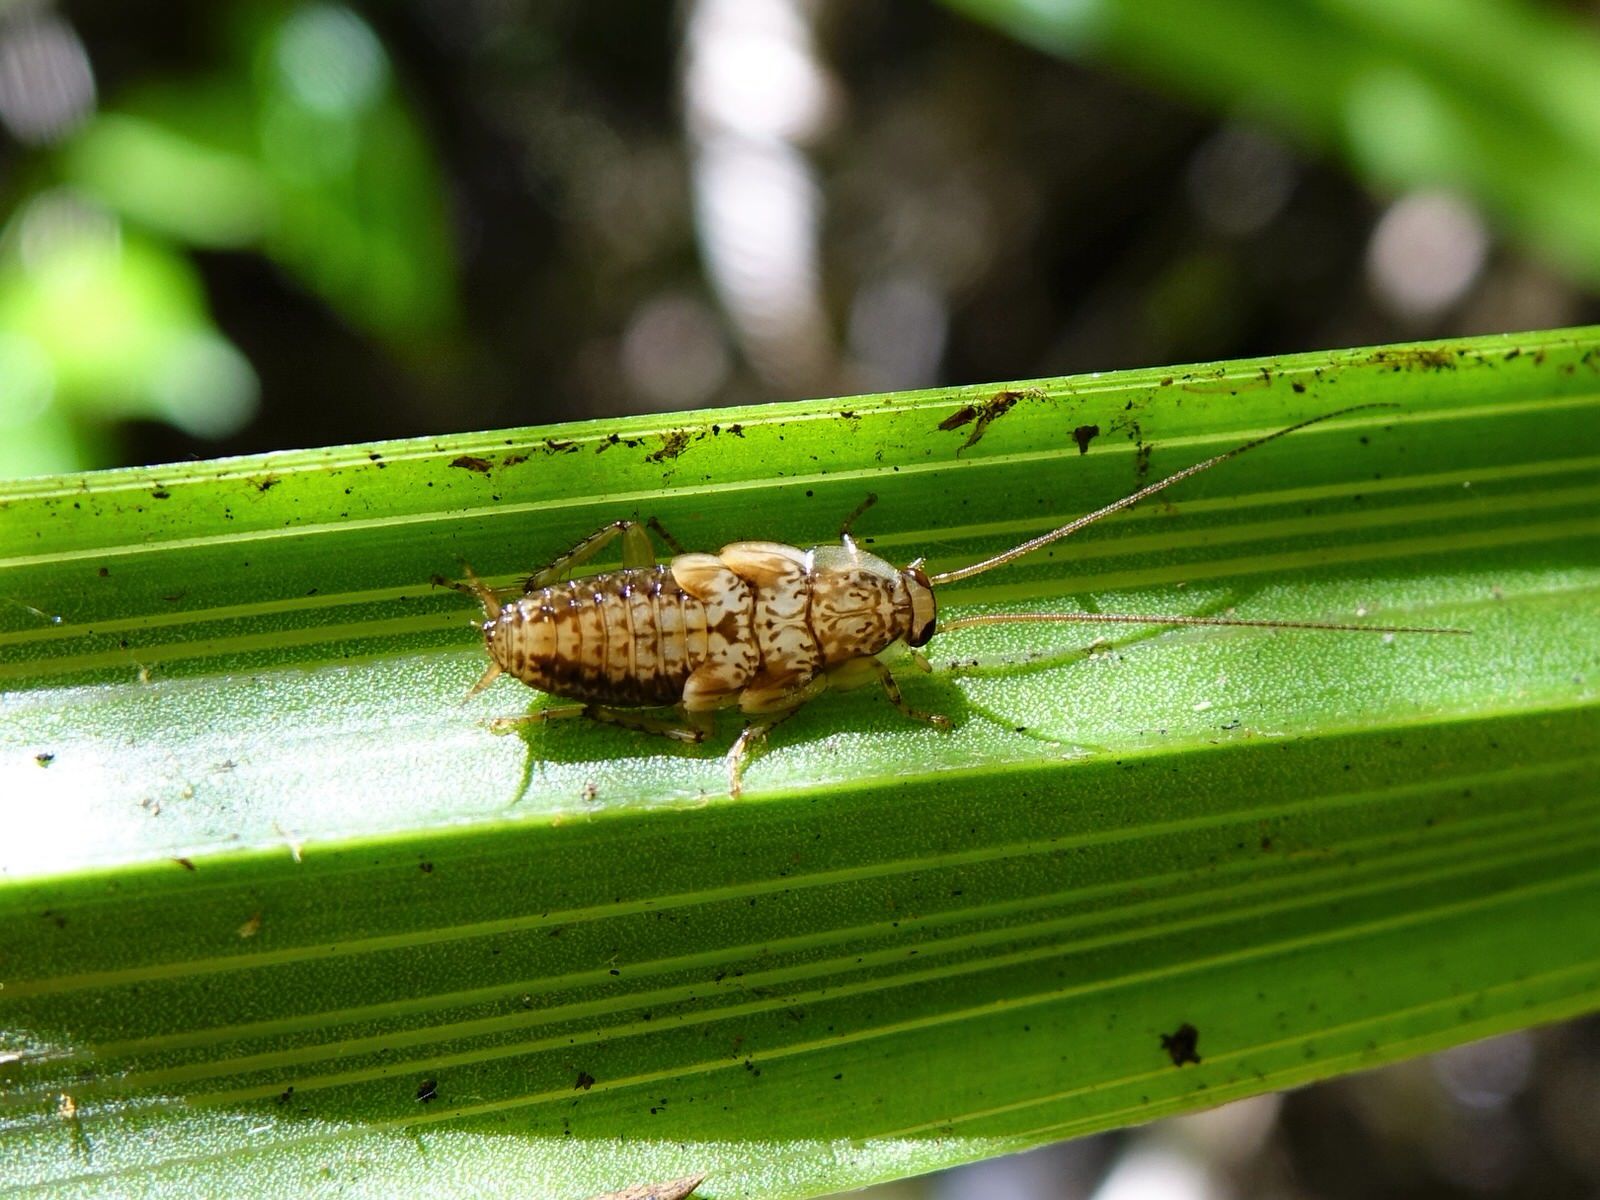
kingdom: Animalia
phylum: Arthropoda
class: Insecta
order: Blattodea
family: Ectobiidae
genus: Parellipsidion
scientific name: Parellipsidion latipenne
